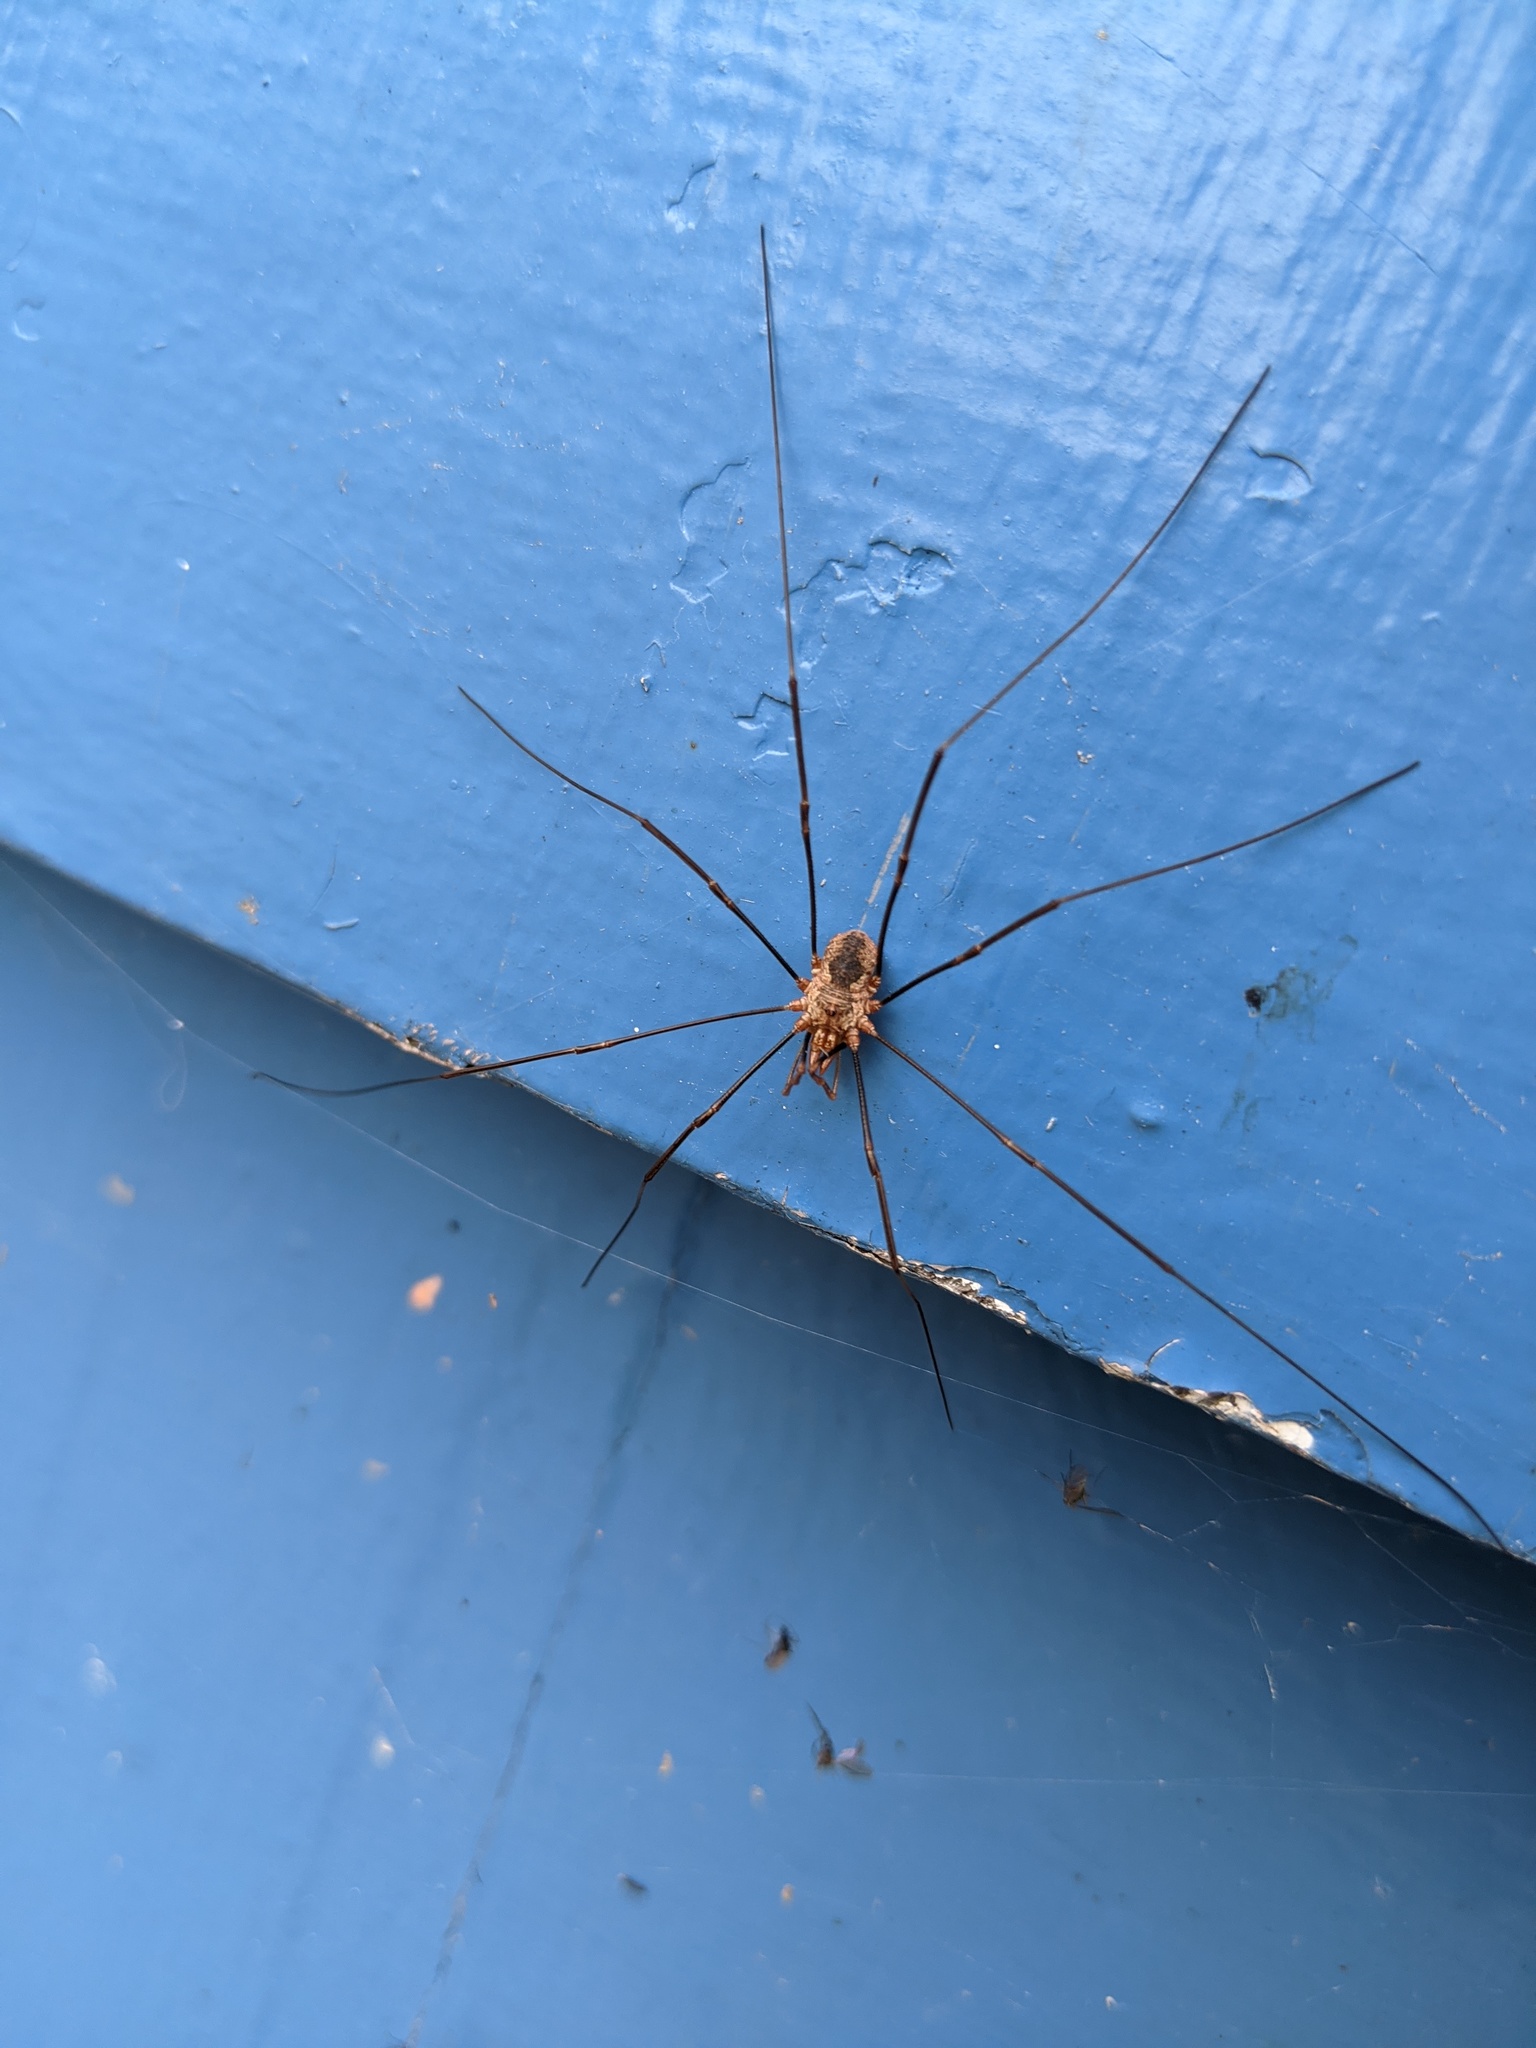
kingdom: Animalia
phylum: Arthropoda
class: Arachnida
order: Opiliones
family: Phalangiidae
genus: Phalangium
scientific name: Phalangium opilio
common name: Daddy longleg
